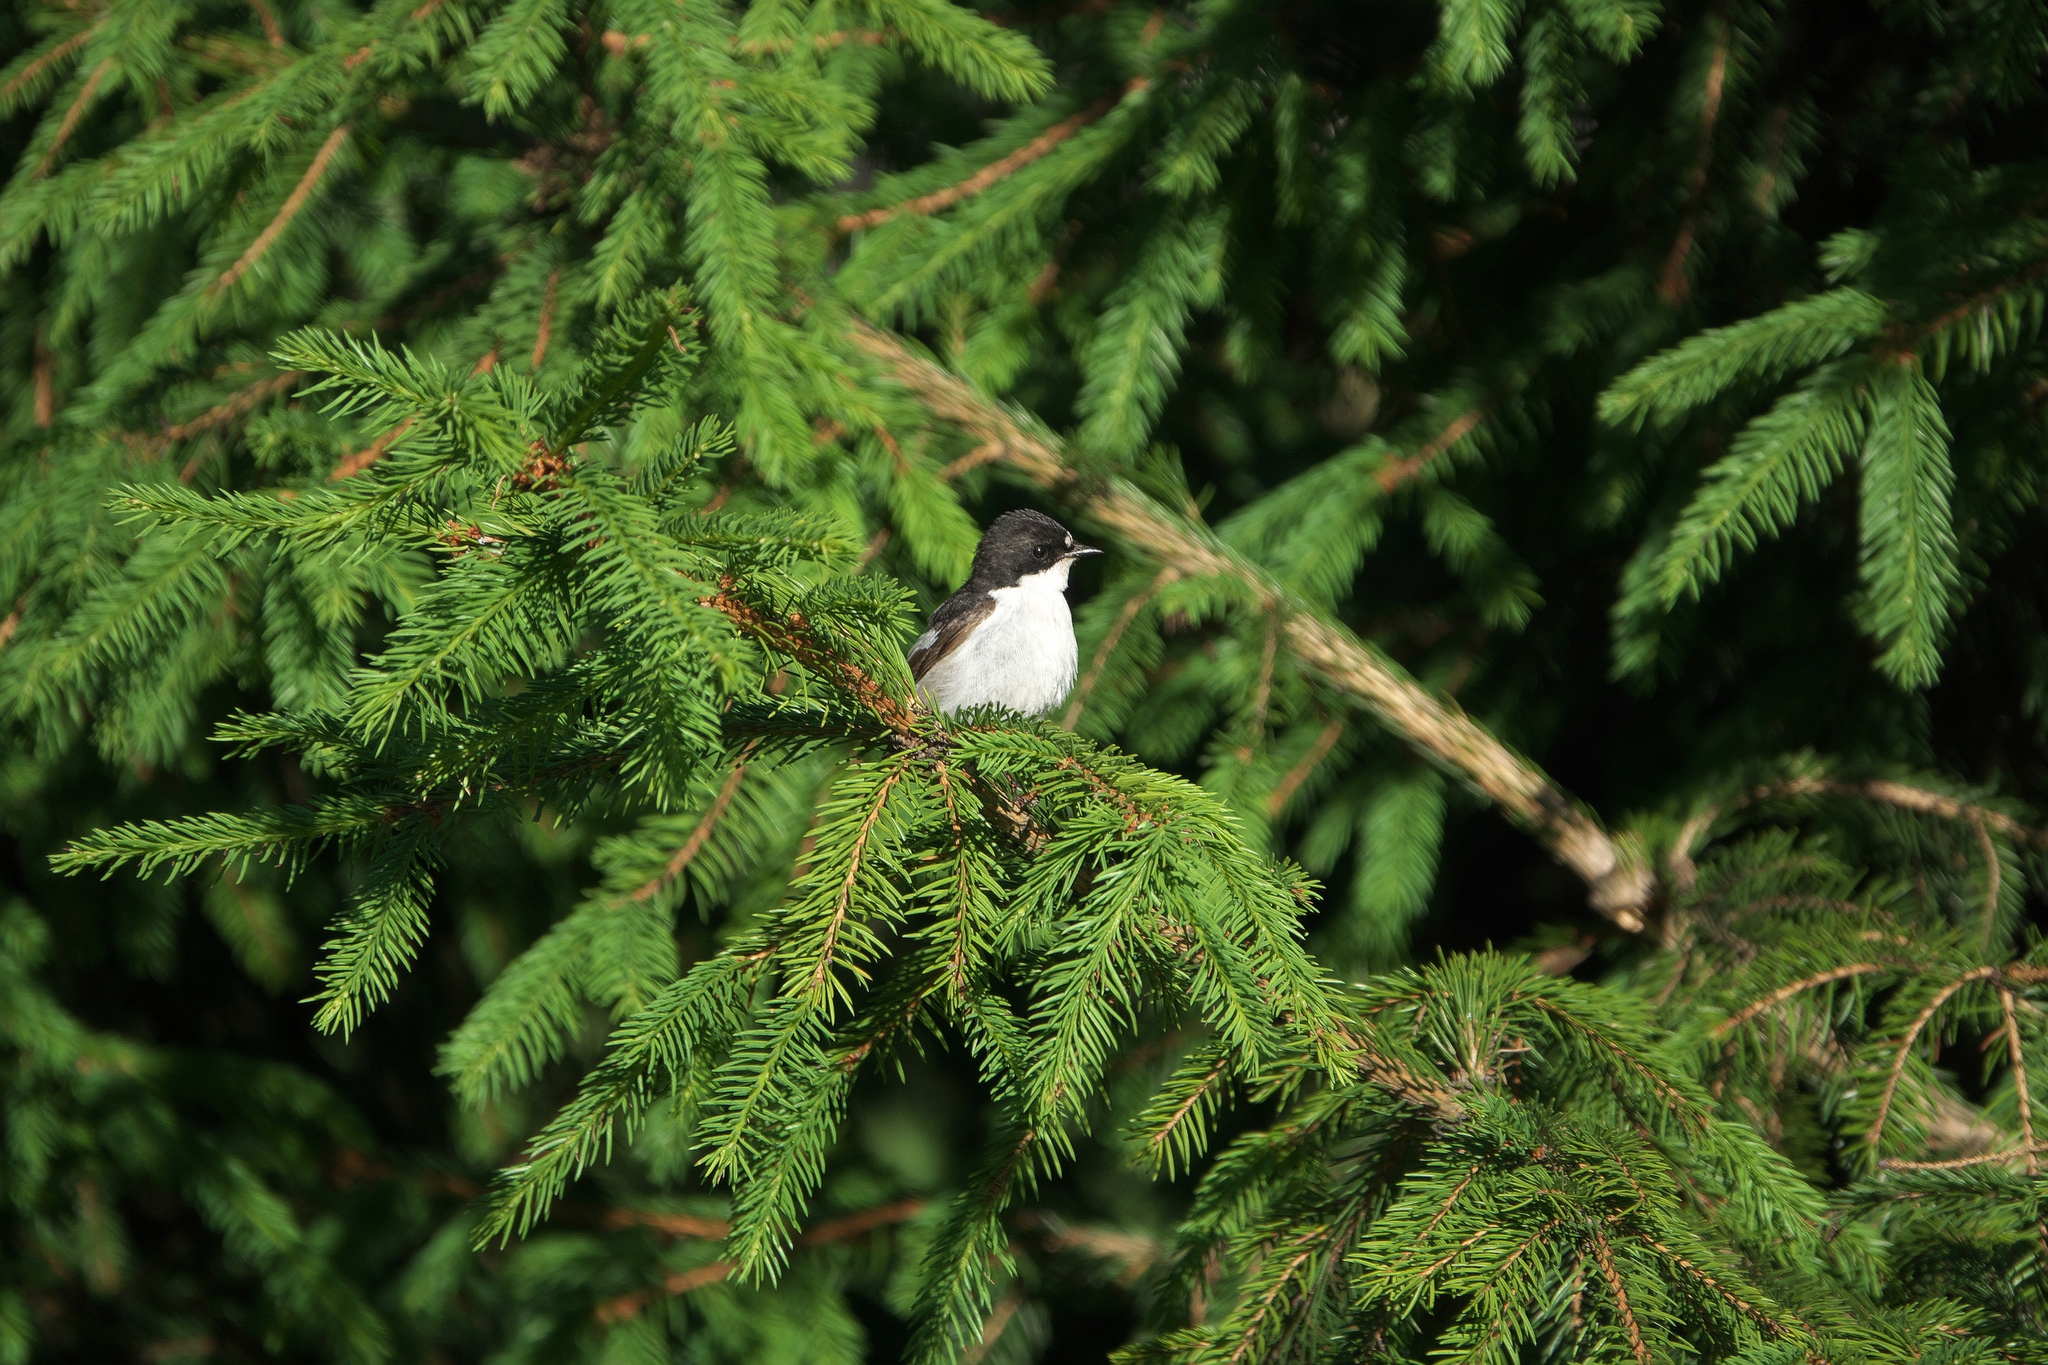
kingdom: Animalia
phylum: Chordata
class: Aves
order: Passeriformes
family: Muscicapidae
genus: Ficedula
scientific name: Ficedula hypoleuca
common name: European pied flycatcher
